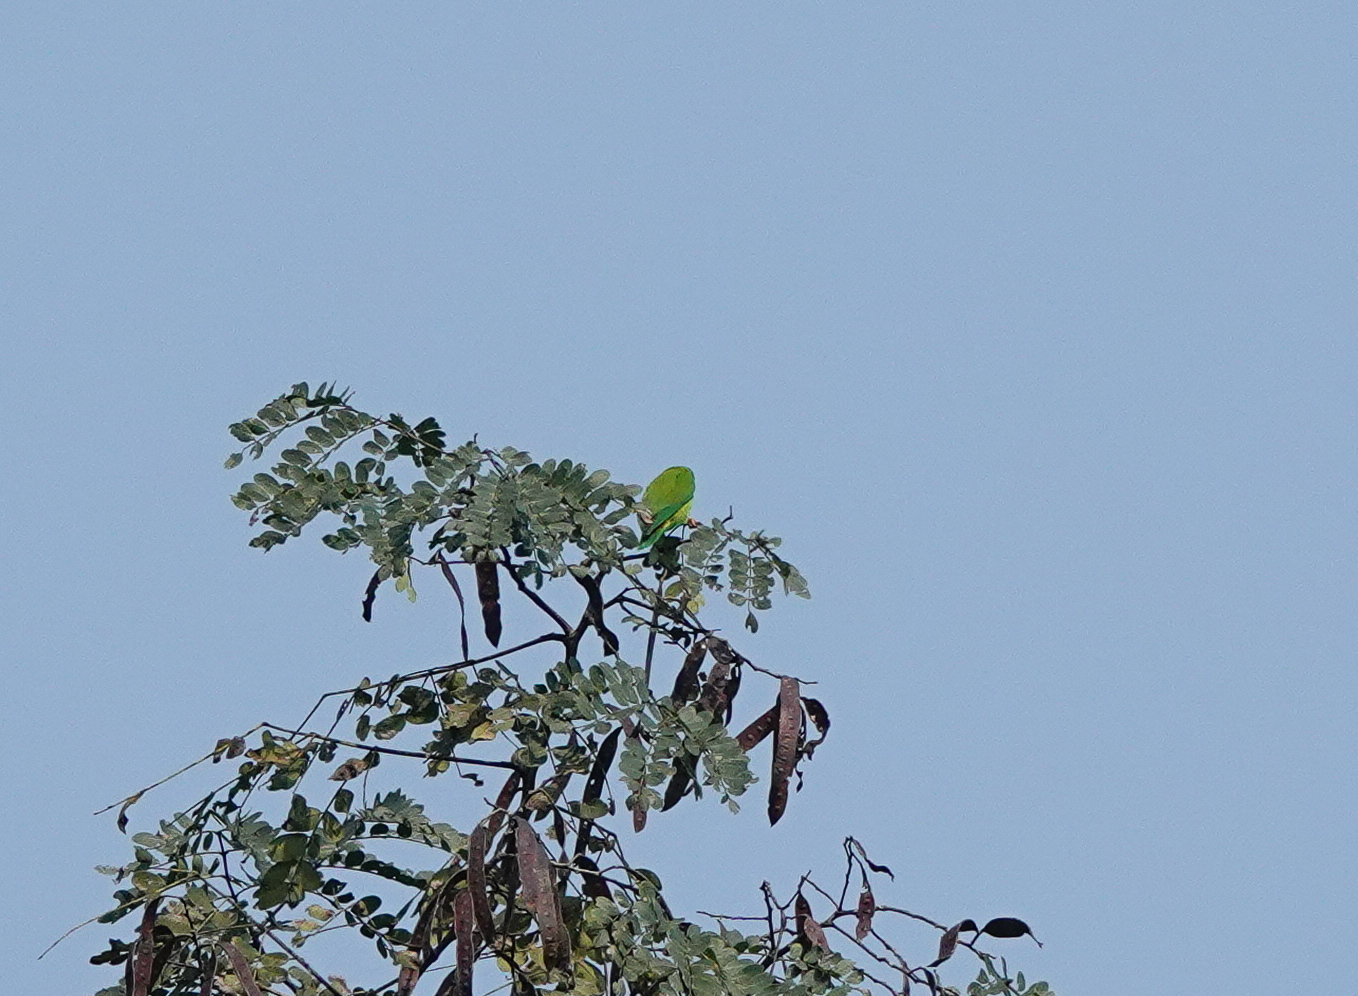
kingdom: Animalia
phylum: Chordata
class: Aves
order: Psittaciformes
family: Psittacidae
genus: Loriculus
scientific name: Loriculus vernalis
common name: Vernal hanging parrot
